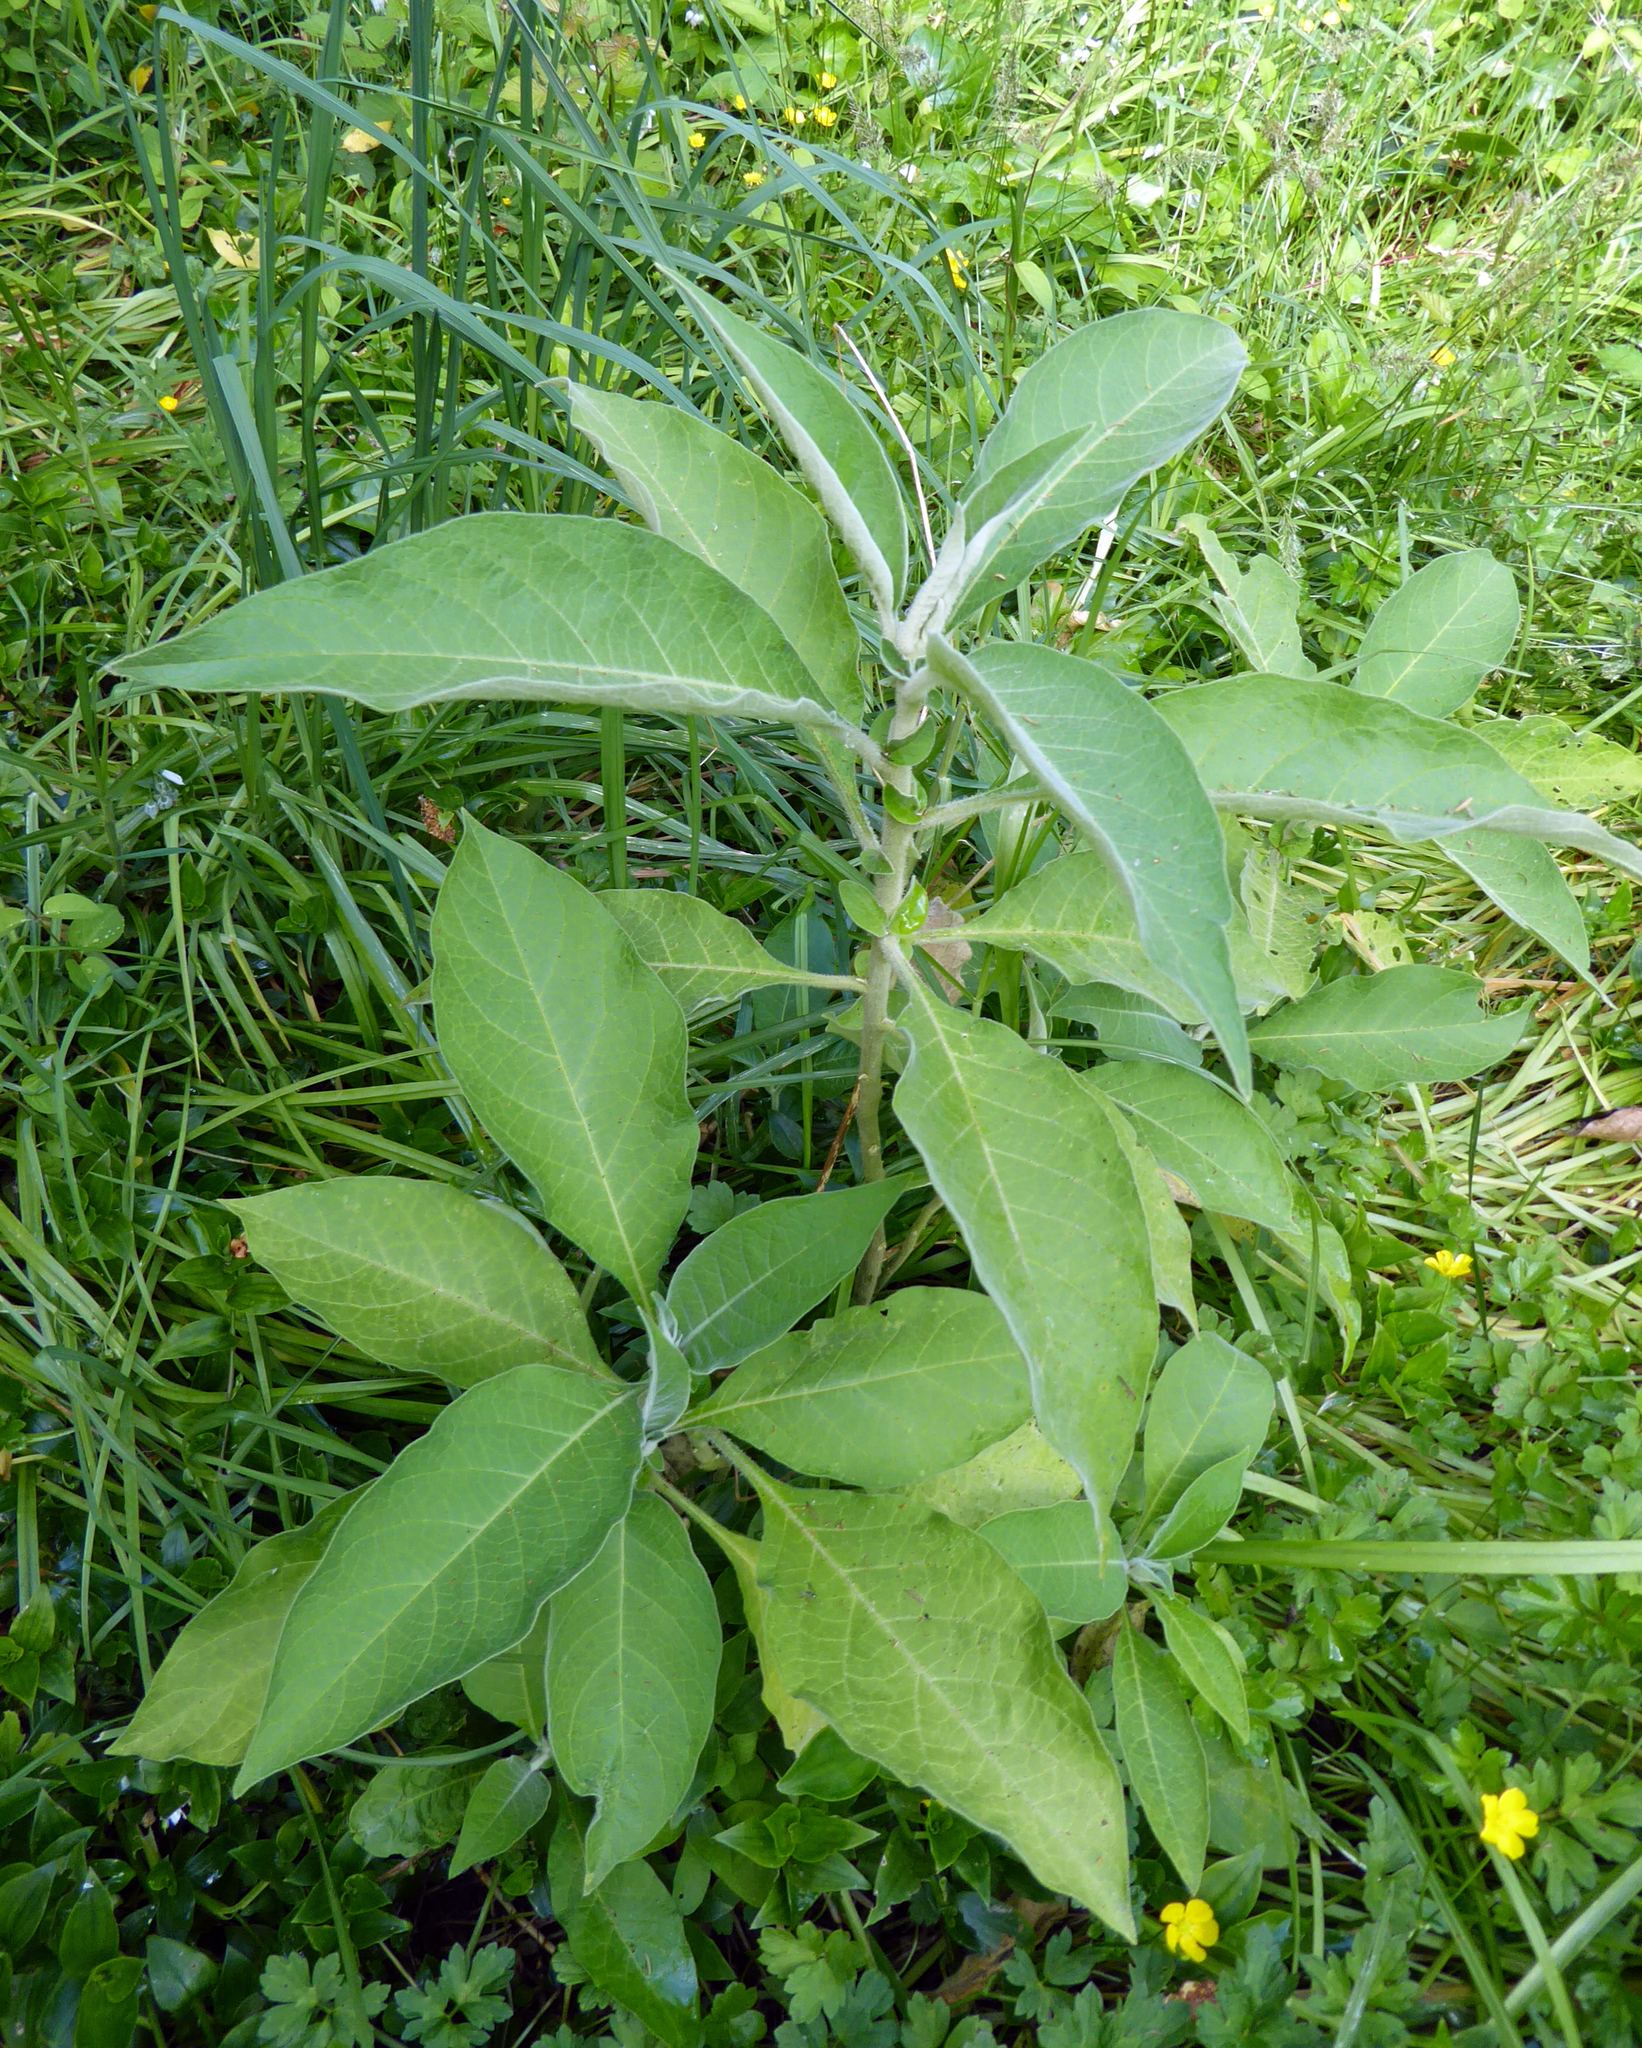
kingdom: Plantae
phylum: Tracheophyta
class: Magnoliopsida
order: Solanales
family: Solanaceae
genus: Solanum
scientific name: Solanum mauritianum
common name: Earleaf nightshade
